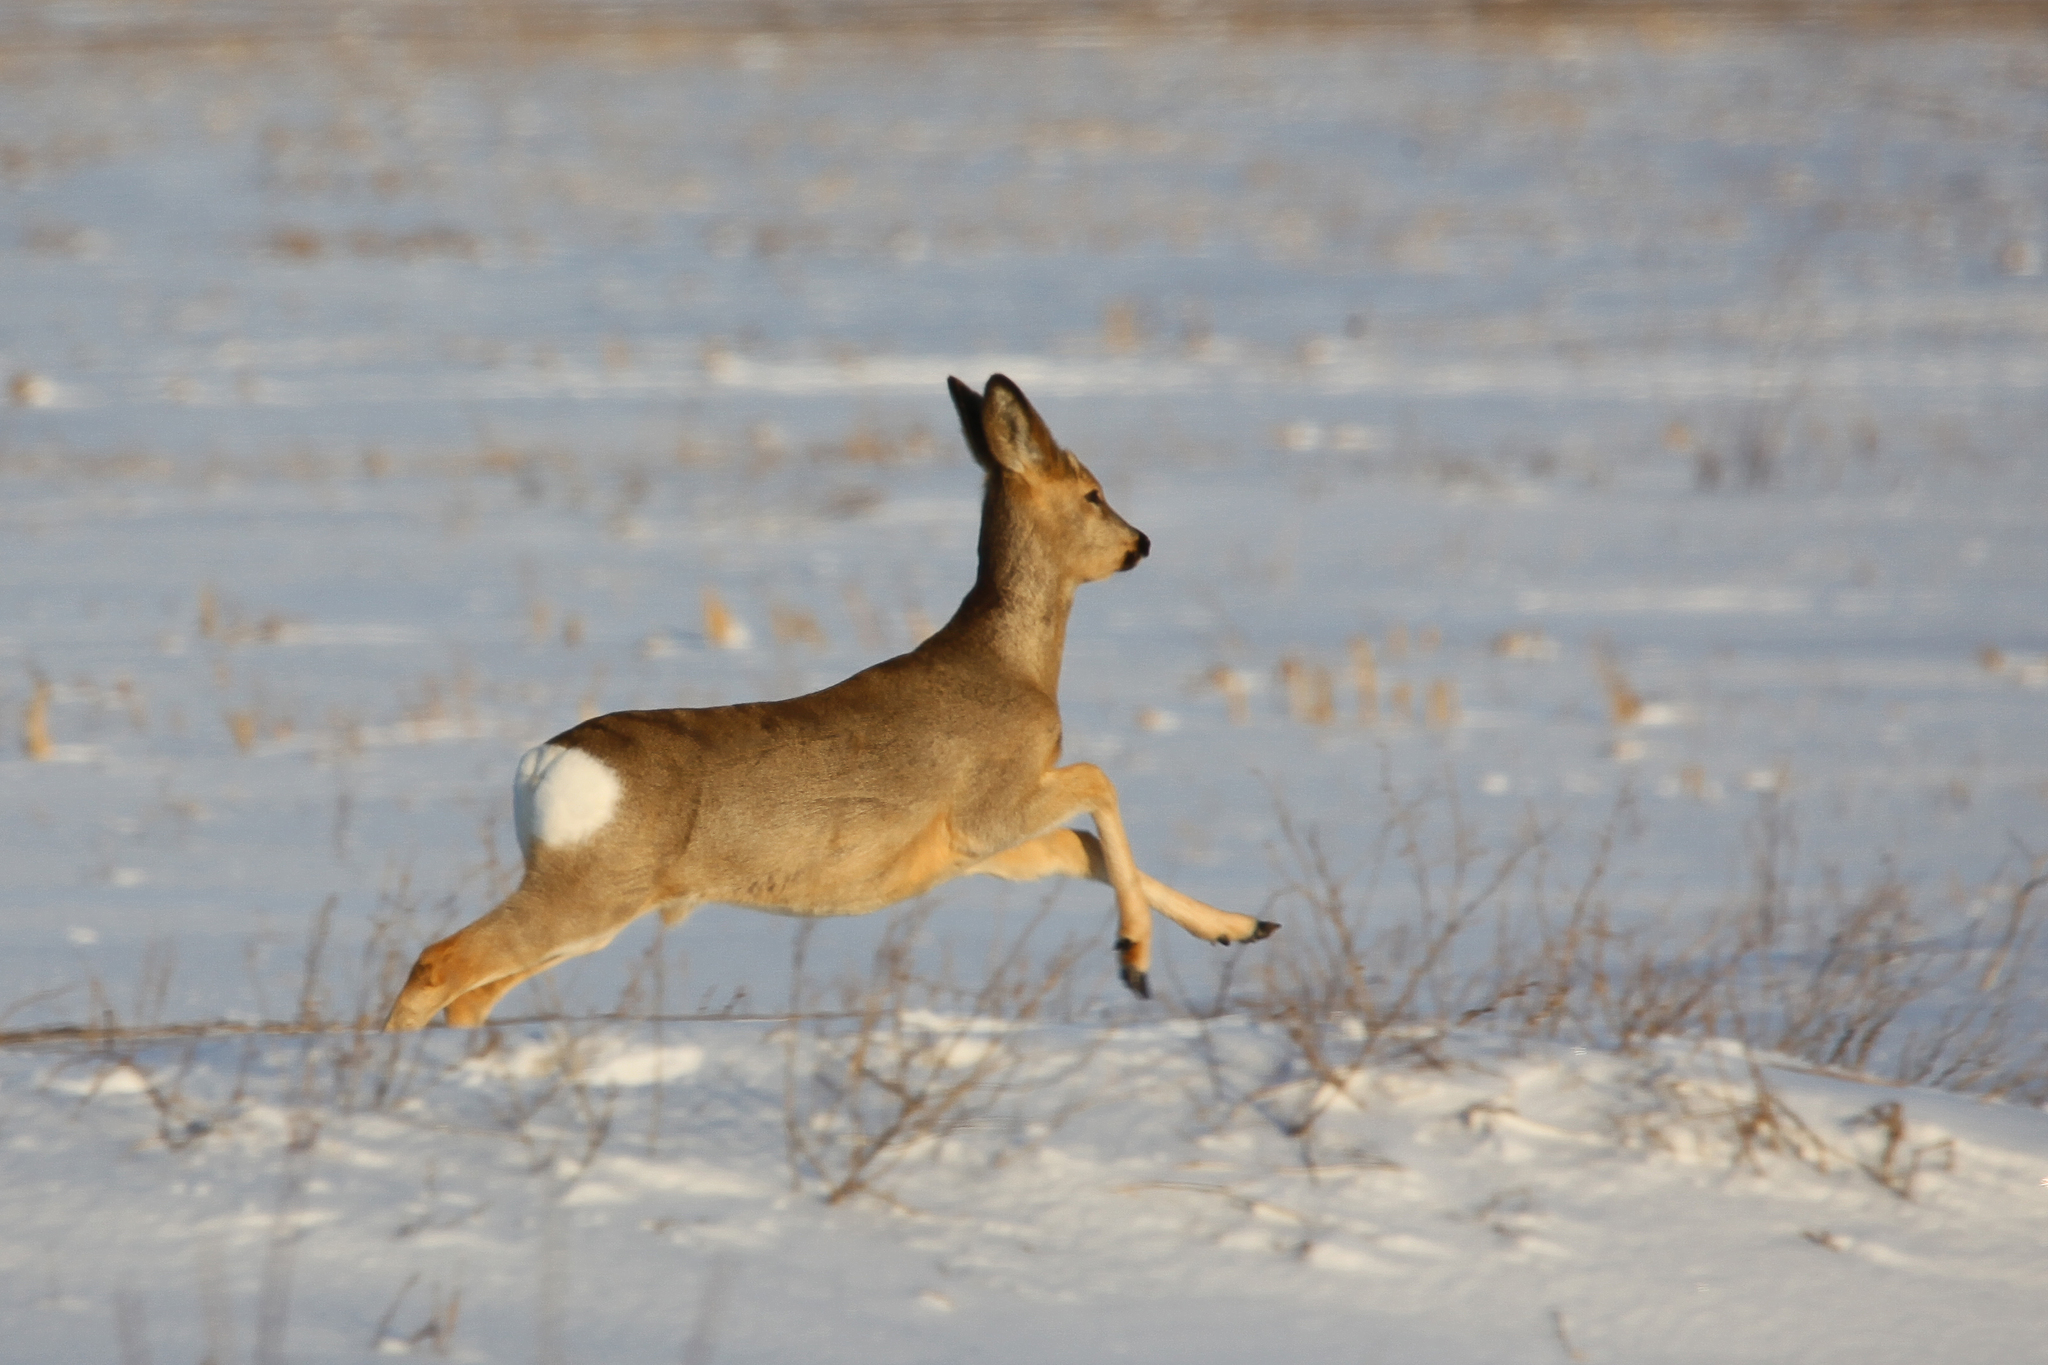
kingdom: Animalia
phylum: Chordata
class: Mammalia
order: Artiodactyla
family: Cervidae
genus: Capreolus
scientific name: Capreolus pygargus
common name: Siberian roe
